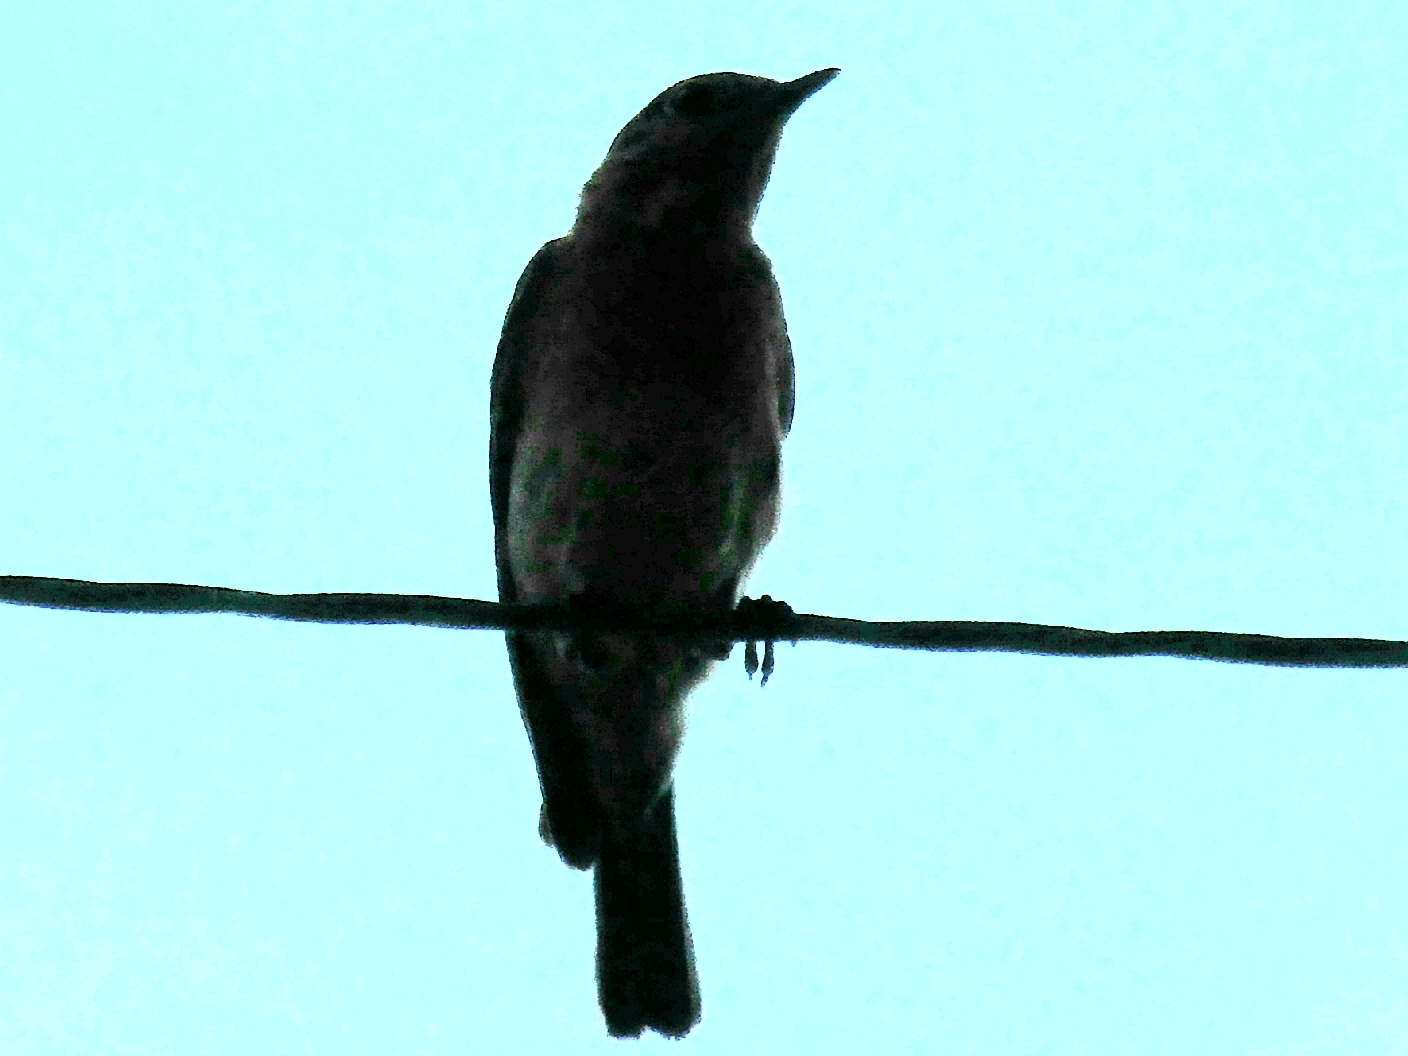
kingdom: Animalia
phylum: Chordata
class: Aves
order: Passeriformes
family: Turdidae
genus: Sialia
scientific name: Sialia sialis
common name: Eastern bluebird
